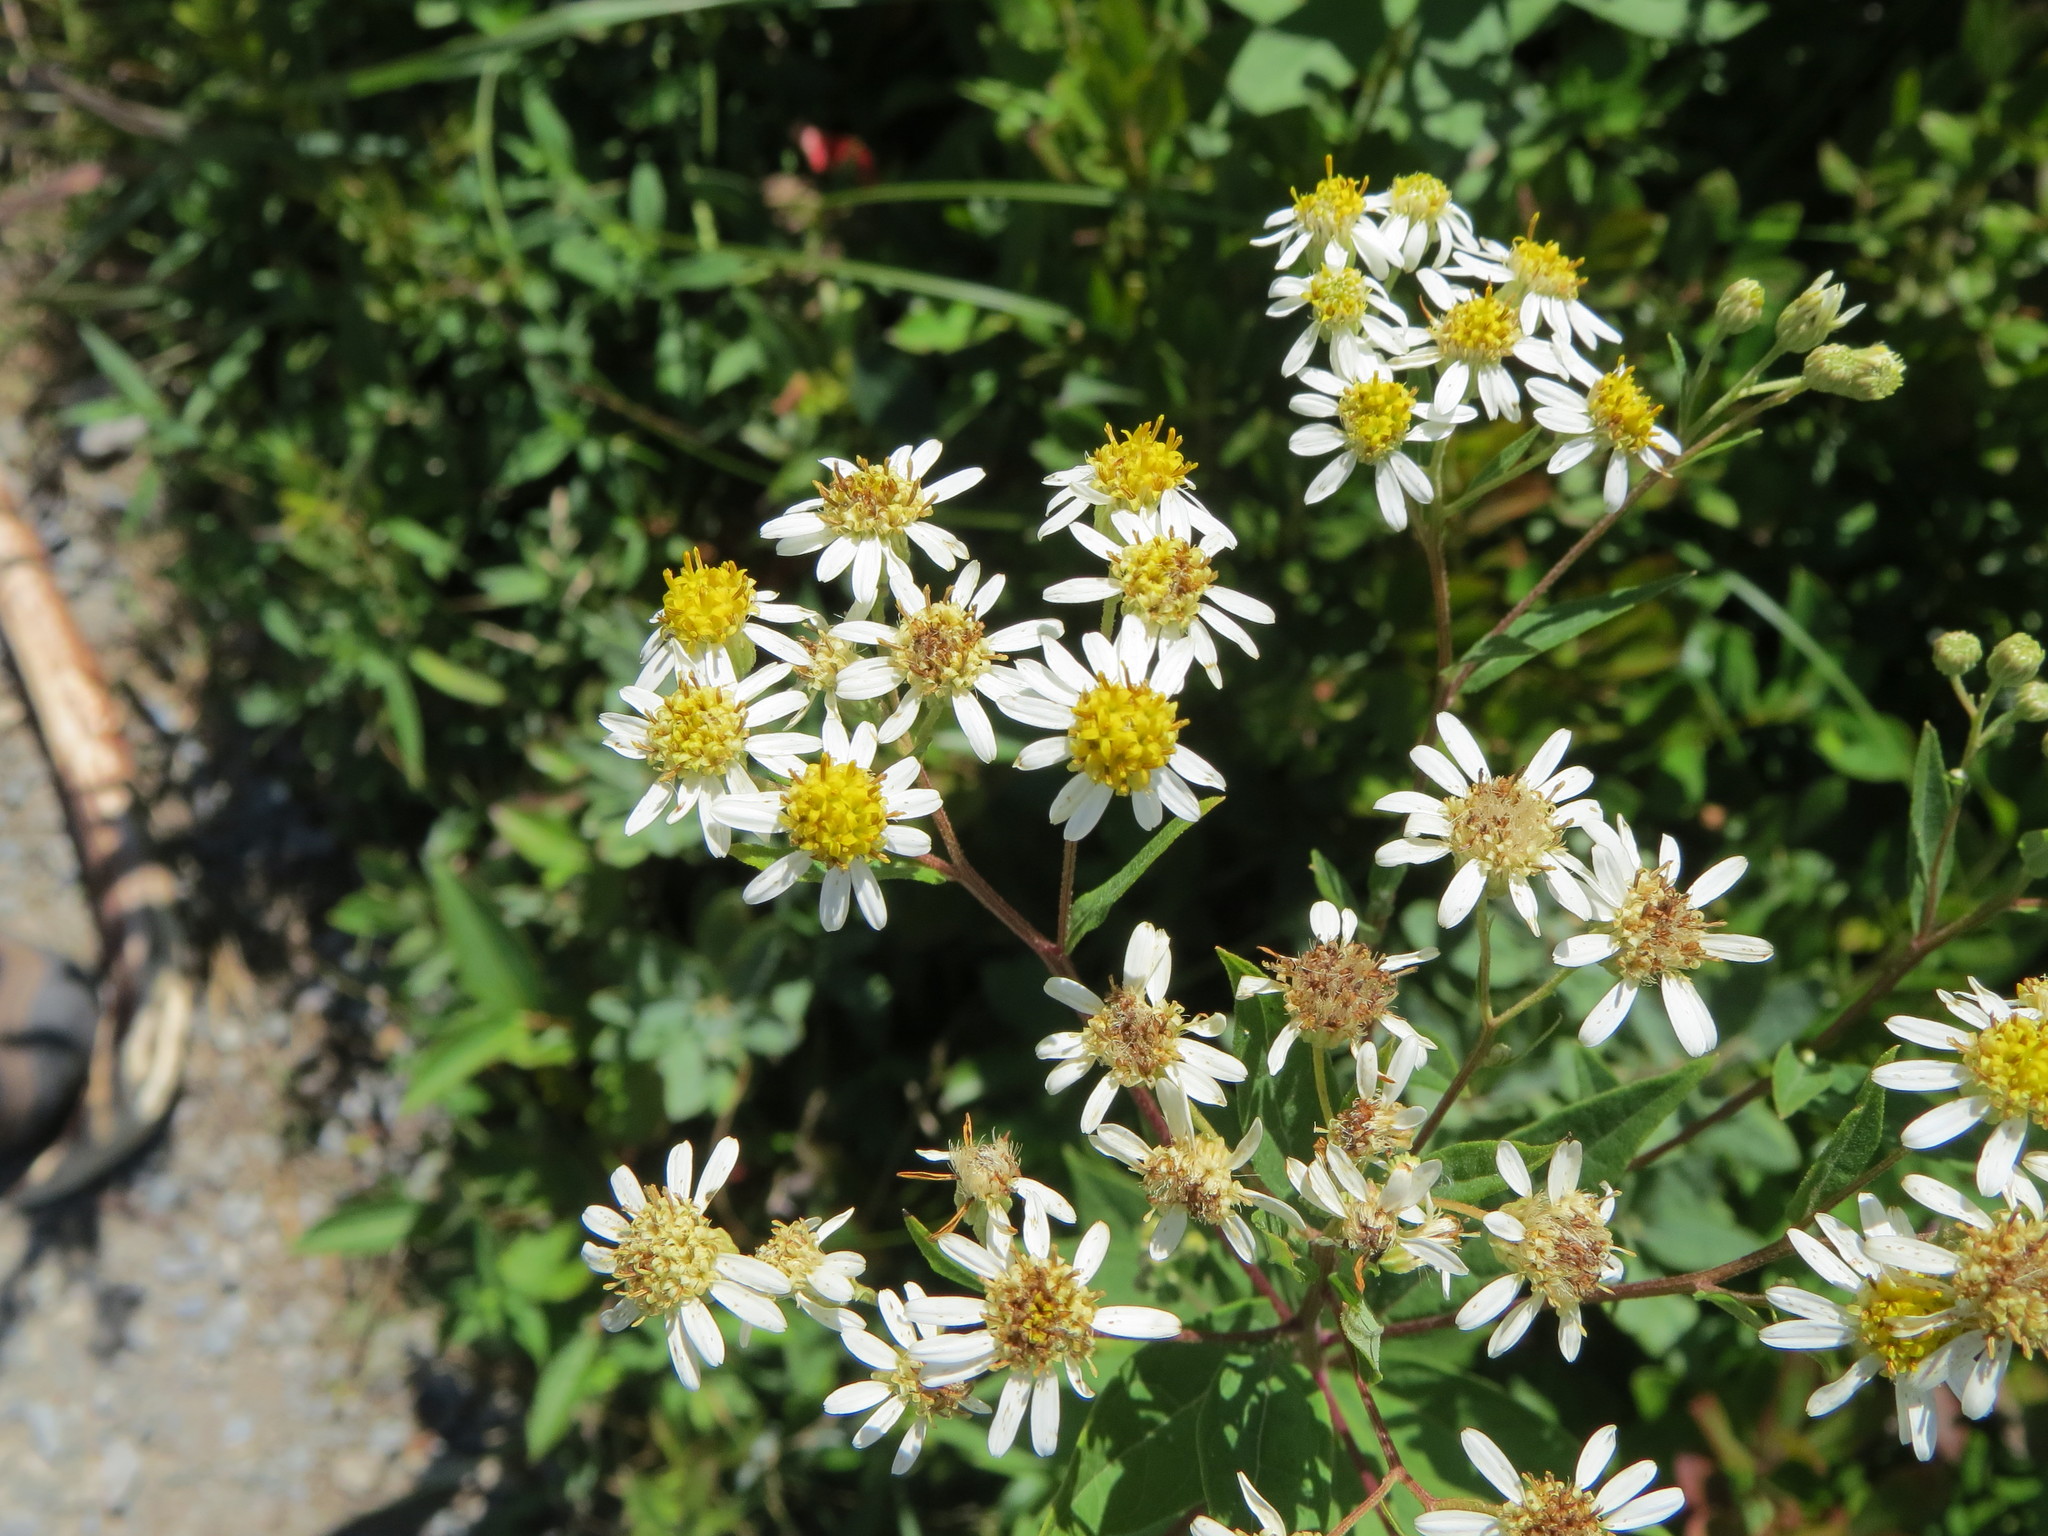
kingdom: Plantae
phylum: Tracheophyta
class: Magnoliopsida
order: Asterales
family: Asteraceae
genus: Doellingeria
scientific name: Doellingeria umbellata
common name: Flat-top white aster
